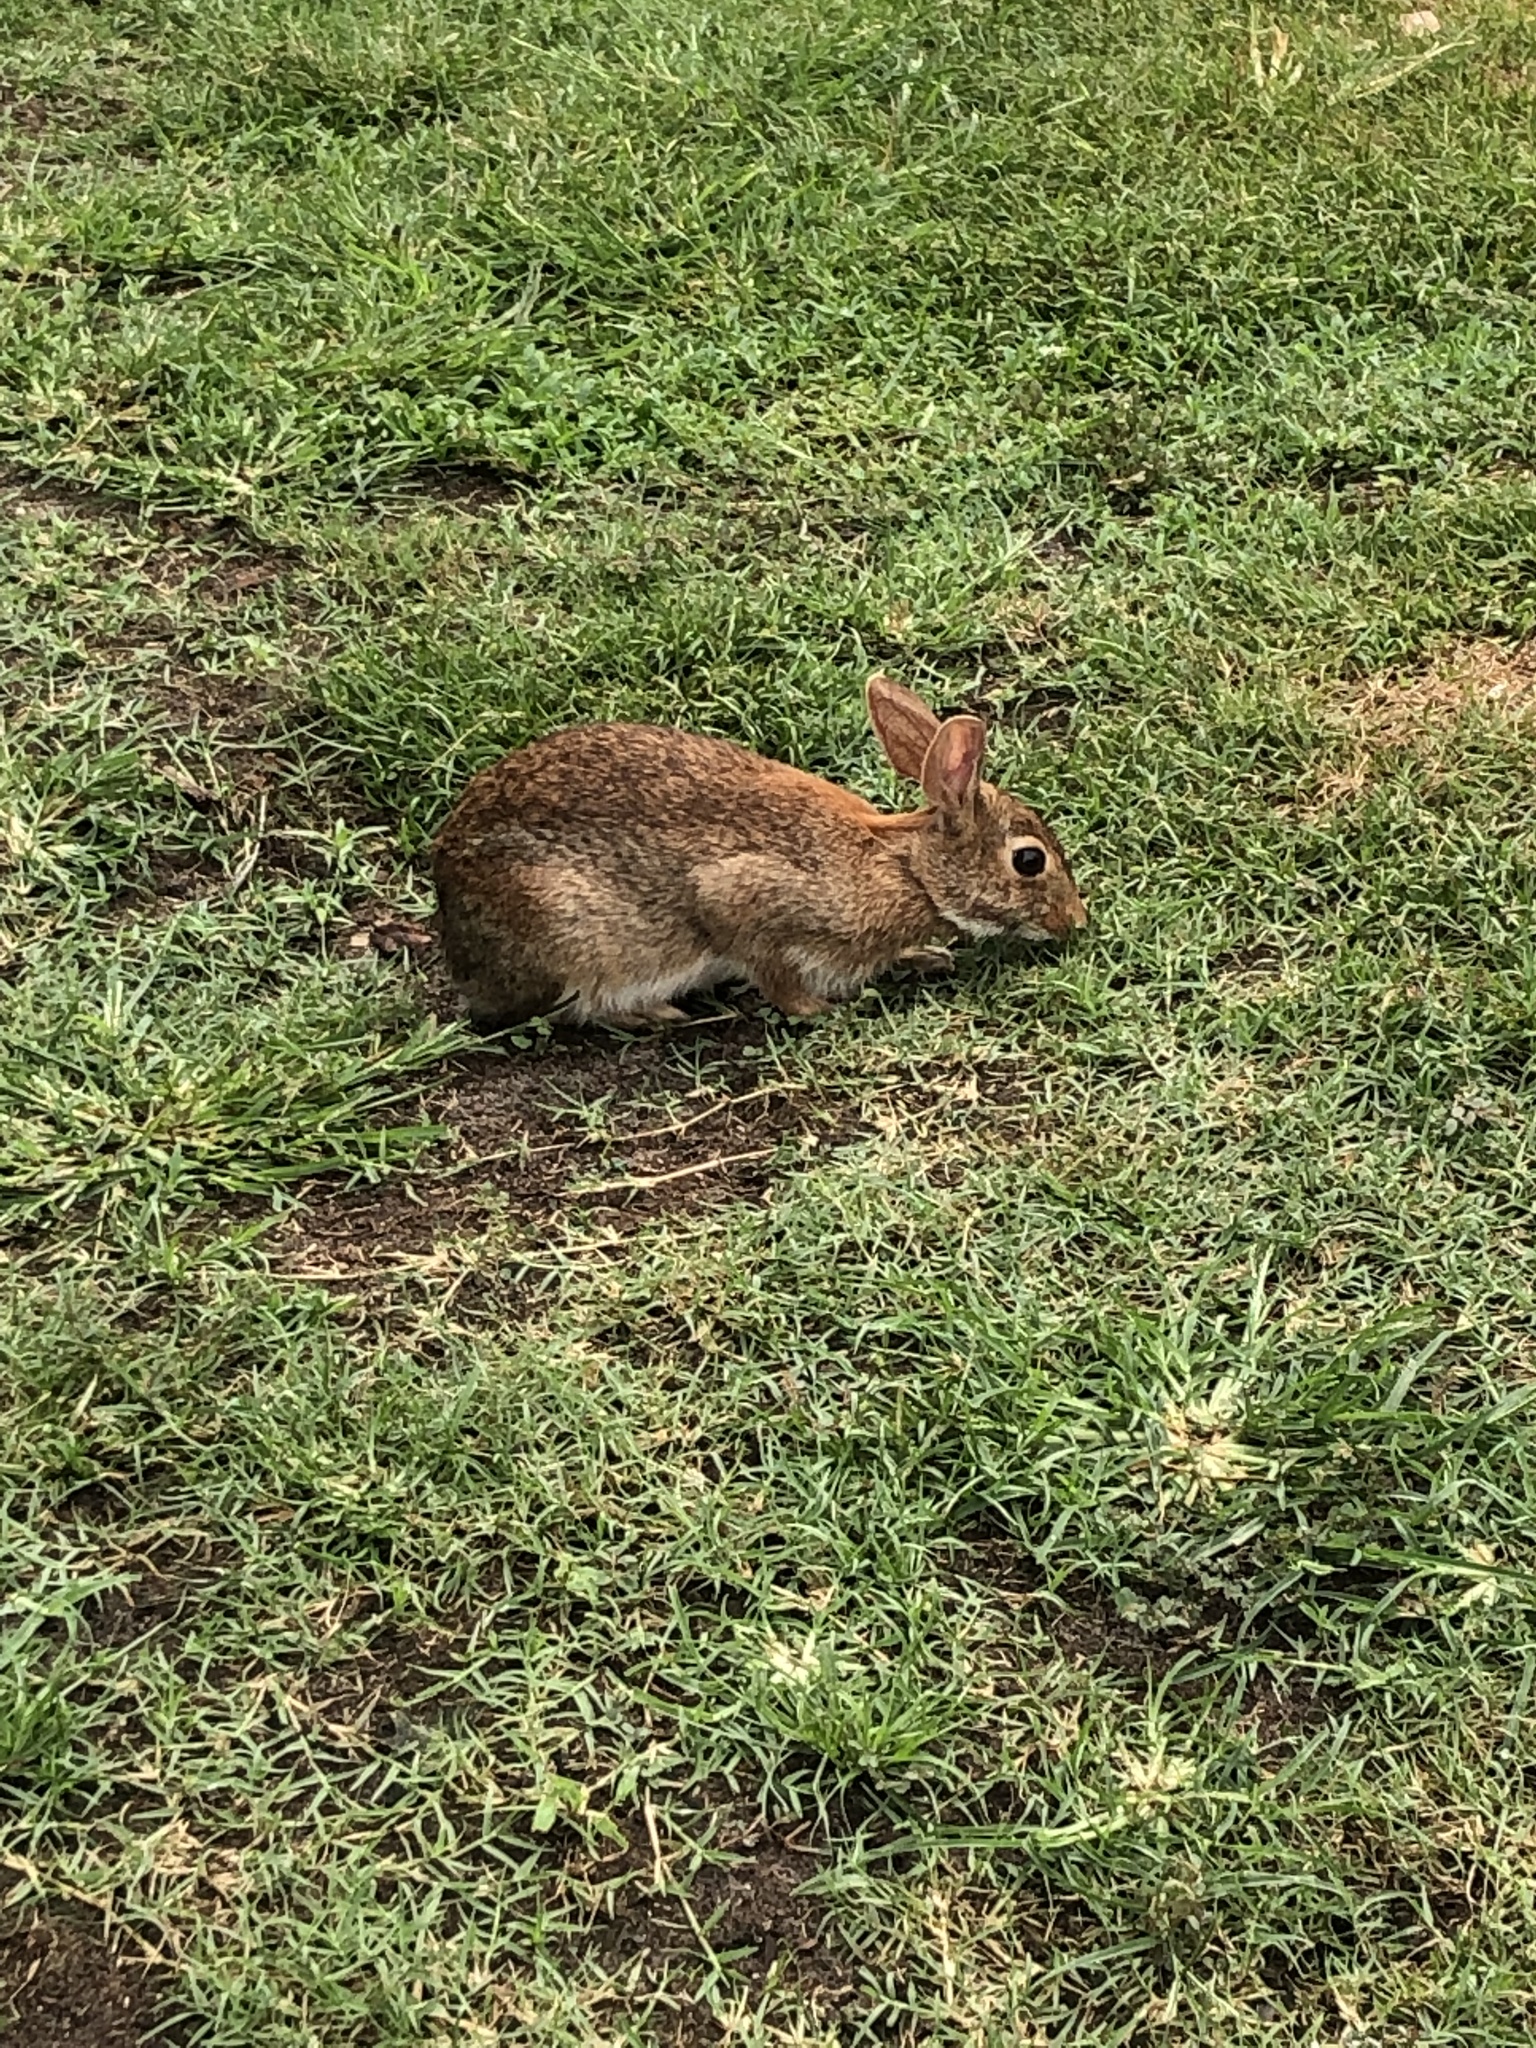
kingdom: Animalia
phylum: Chordata
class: Mammalia
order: Lagomorpha
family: Leporidae
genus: Sylvilagus
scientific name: Sylvilagus floridanus
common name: Eastern cottontail
